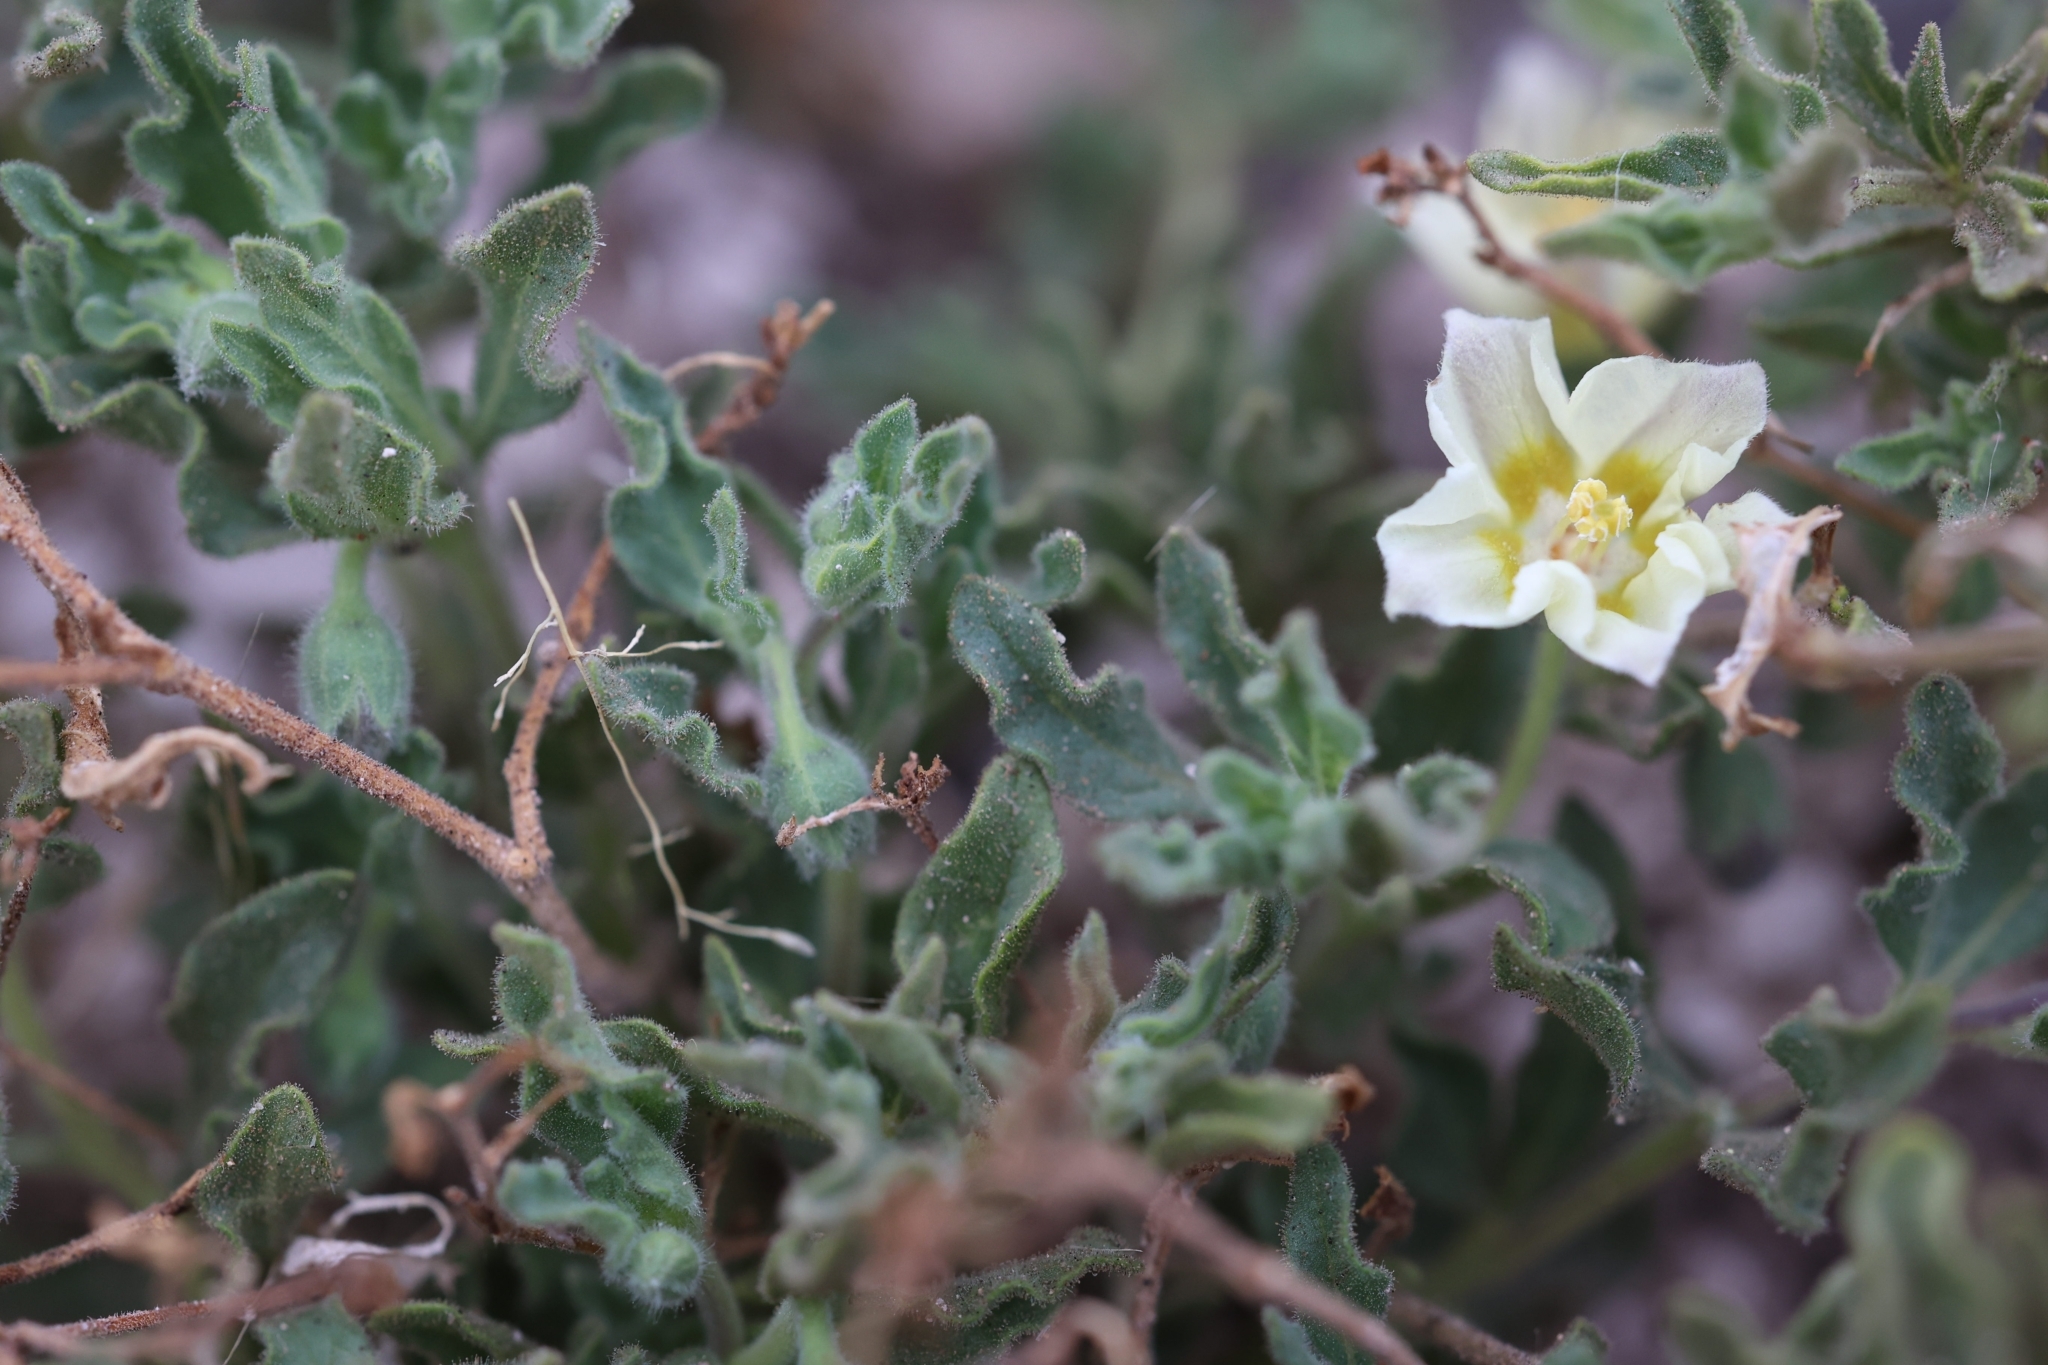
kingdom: Plantae
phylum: Tracheophyta
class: Magnoliopsida
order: Solanales
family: Solanaceae
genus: Chamaesaracha
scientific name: Chamaesaracha sordida
